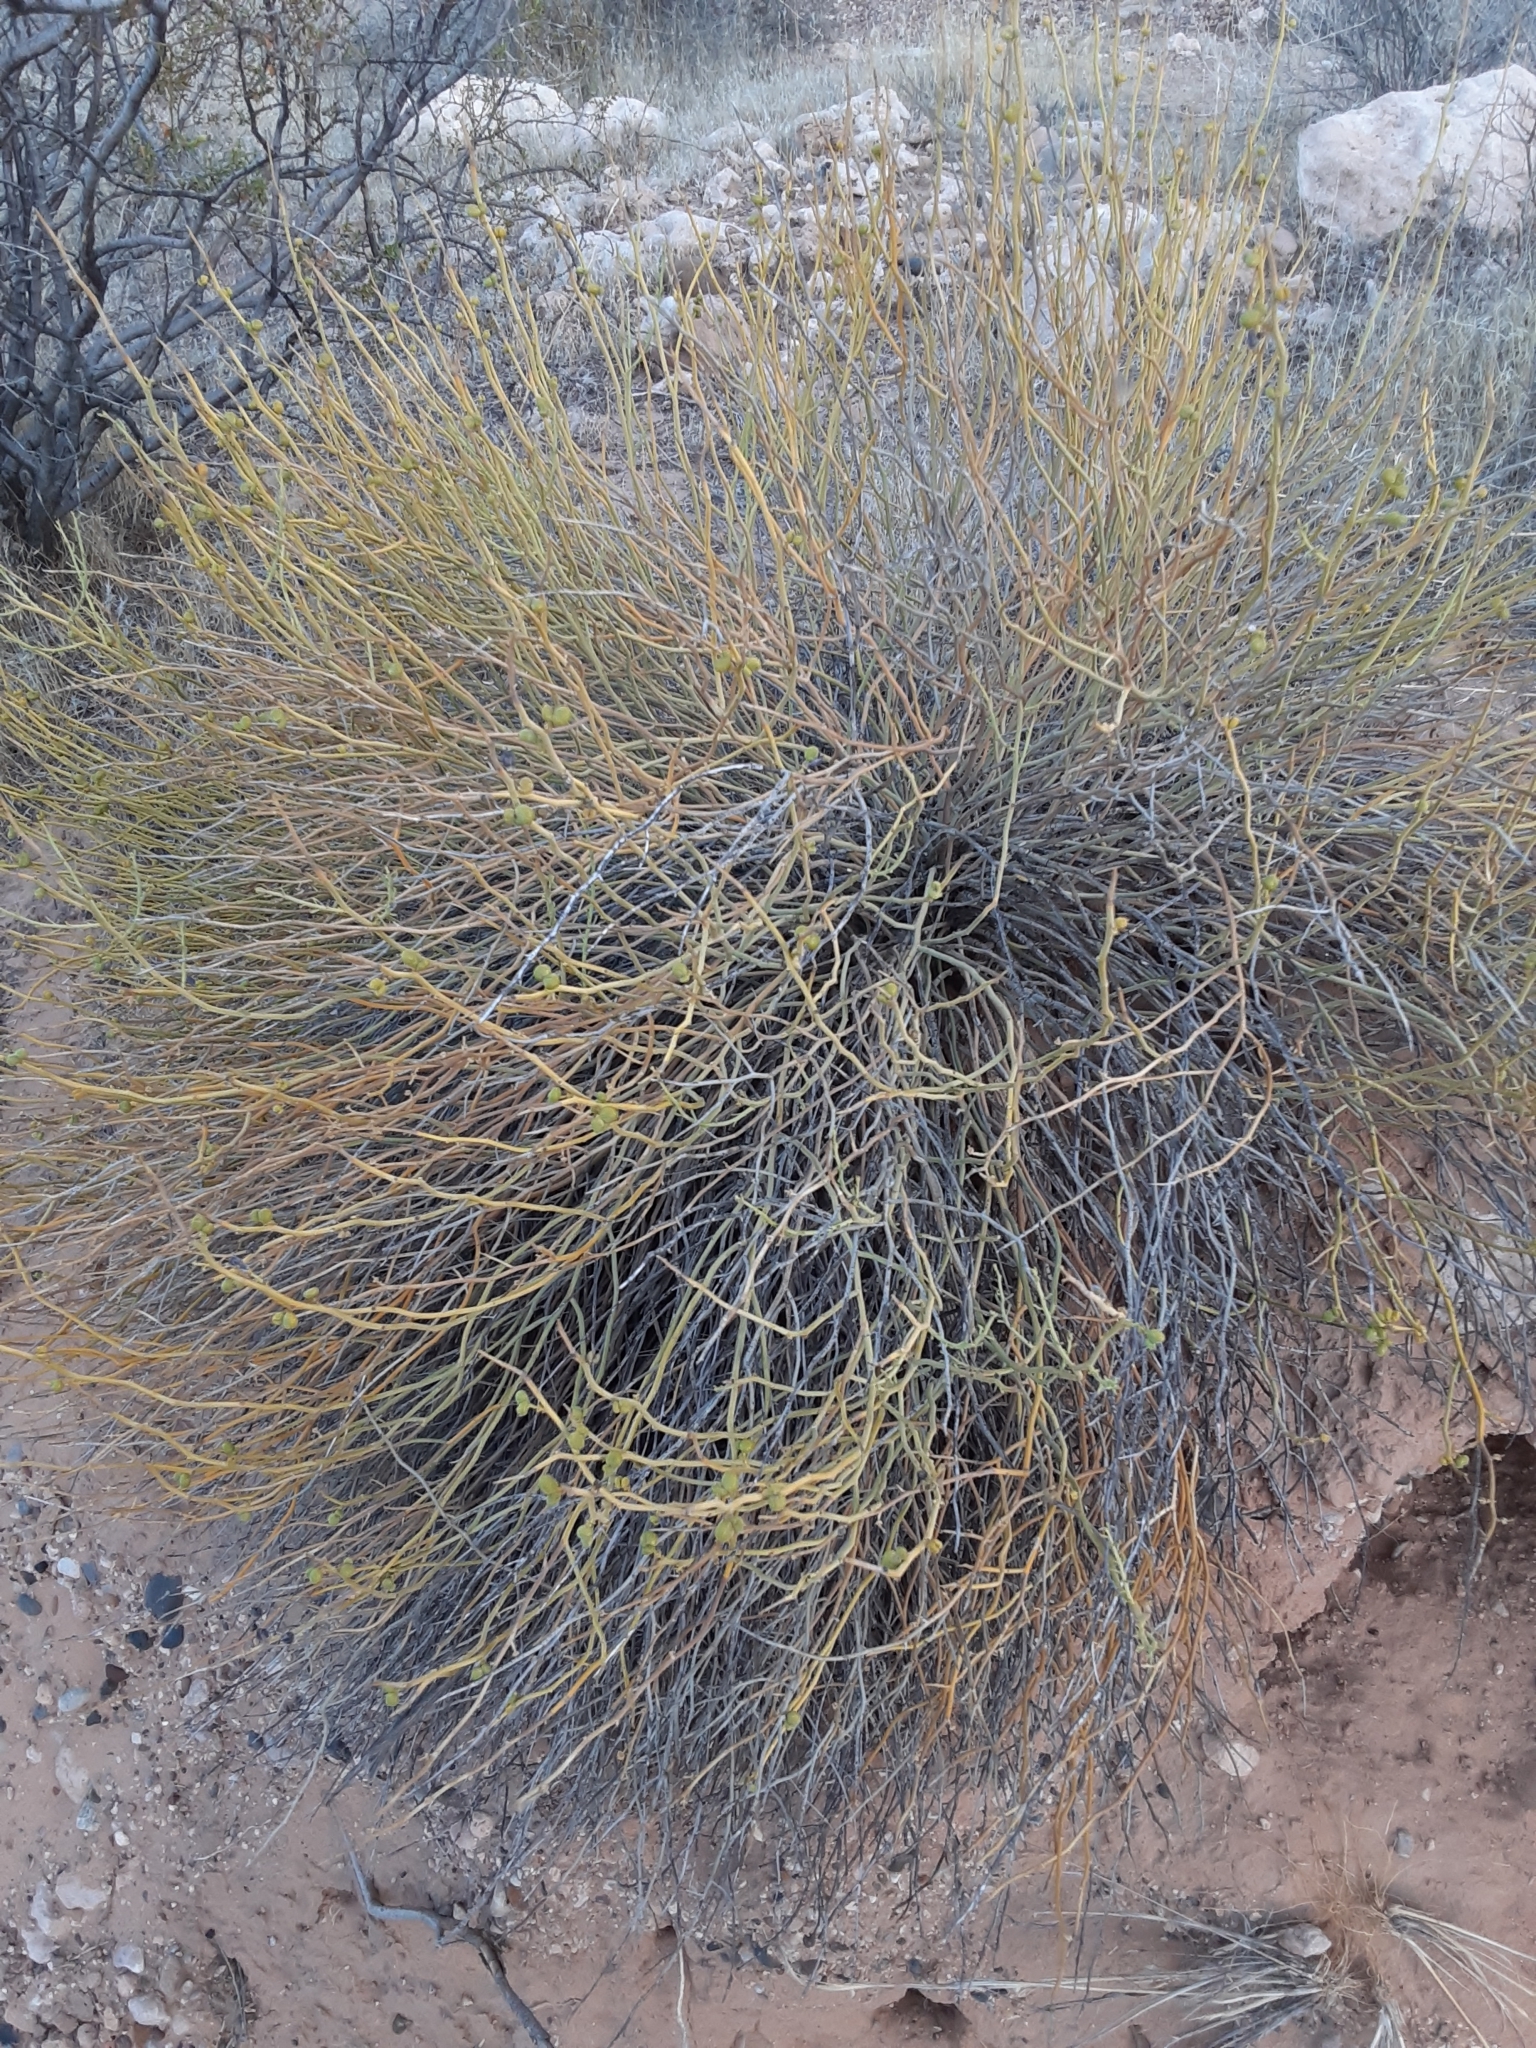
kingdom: Plantae
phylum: Tracheophyta
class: Magnoliopsida
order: Sapindales
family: Rutaceae
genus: Thamnosma
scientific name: Thamnosma montana
